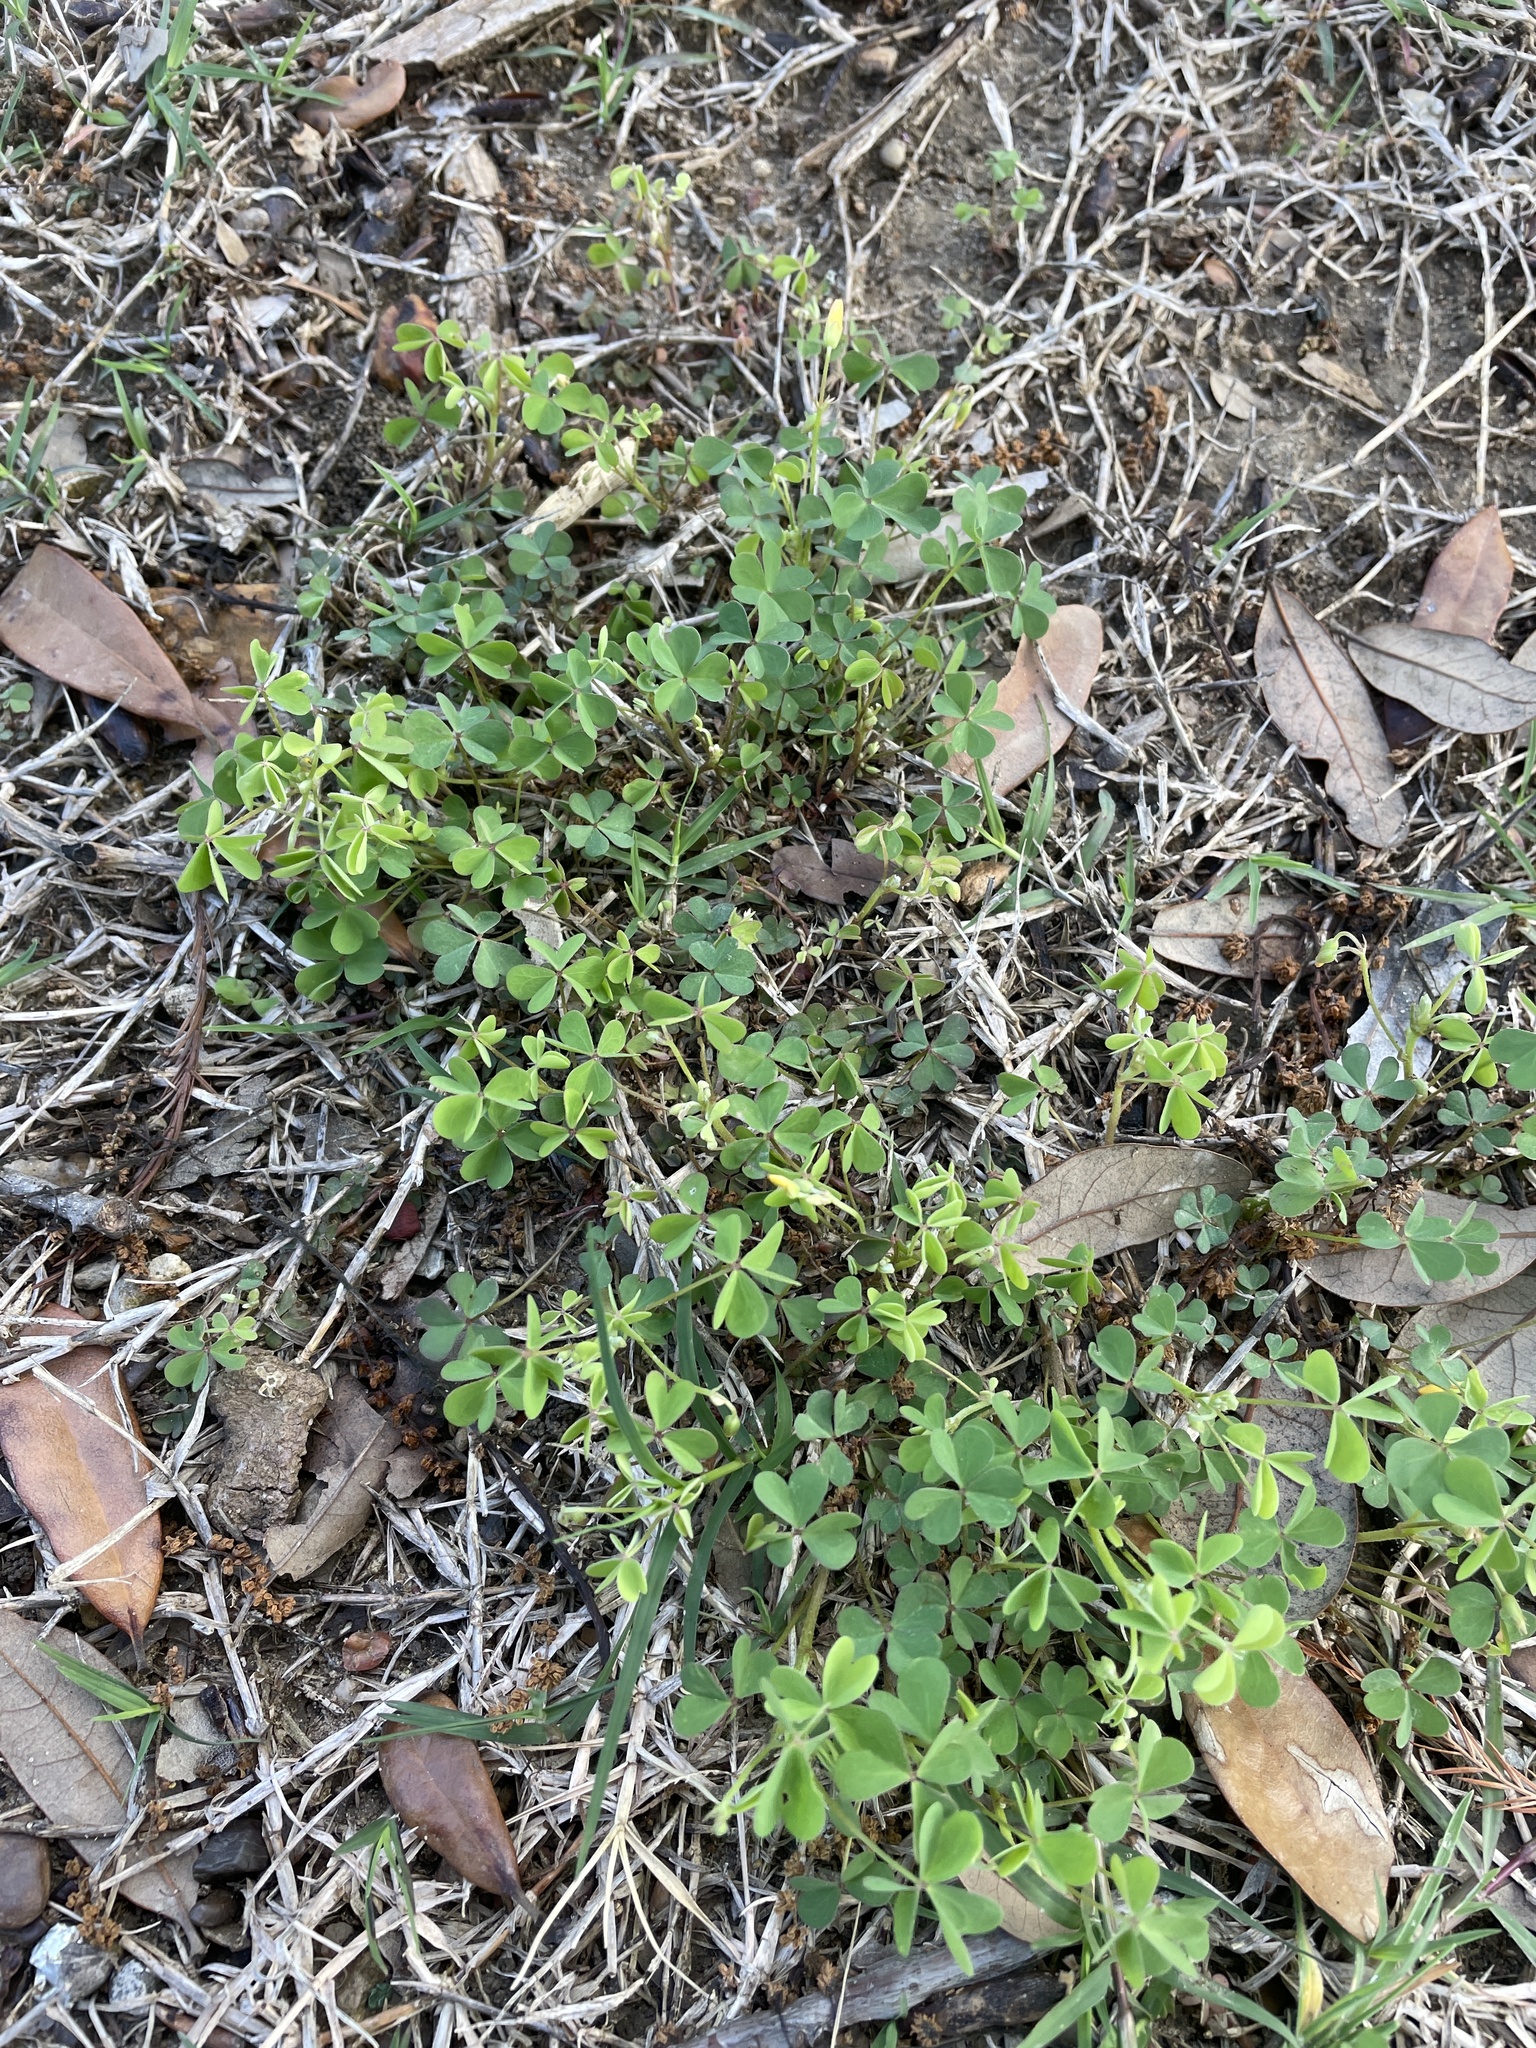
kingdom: Plantae
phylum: Tracheophyta
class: Magnoliopsida
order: Oxalidales
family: Oxalidaceae
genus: Oxalis
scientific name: Oxalis dillenii
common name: Sussex yellow-sorrel
